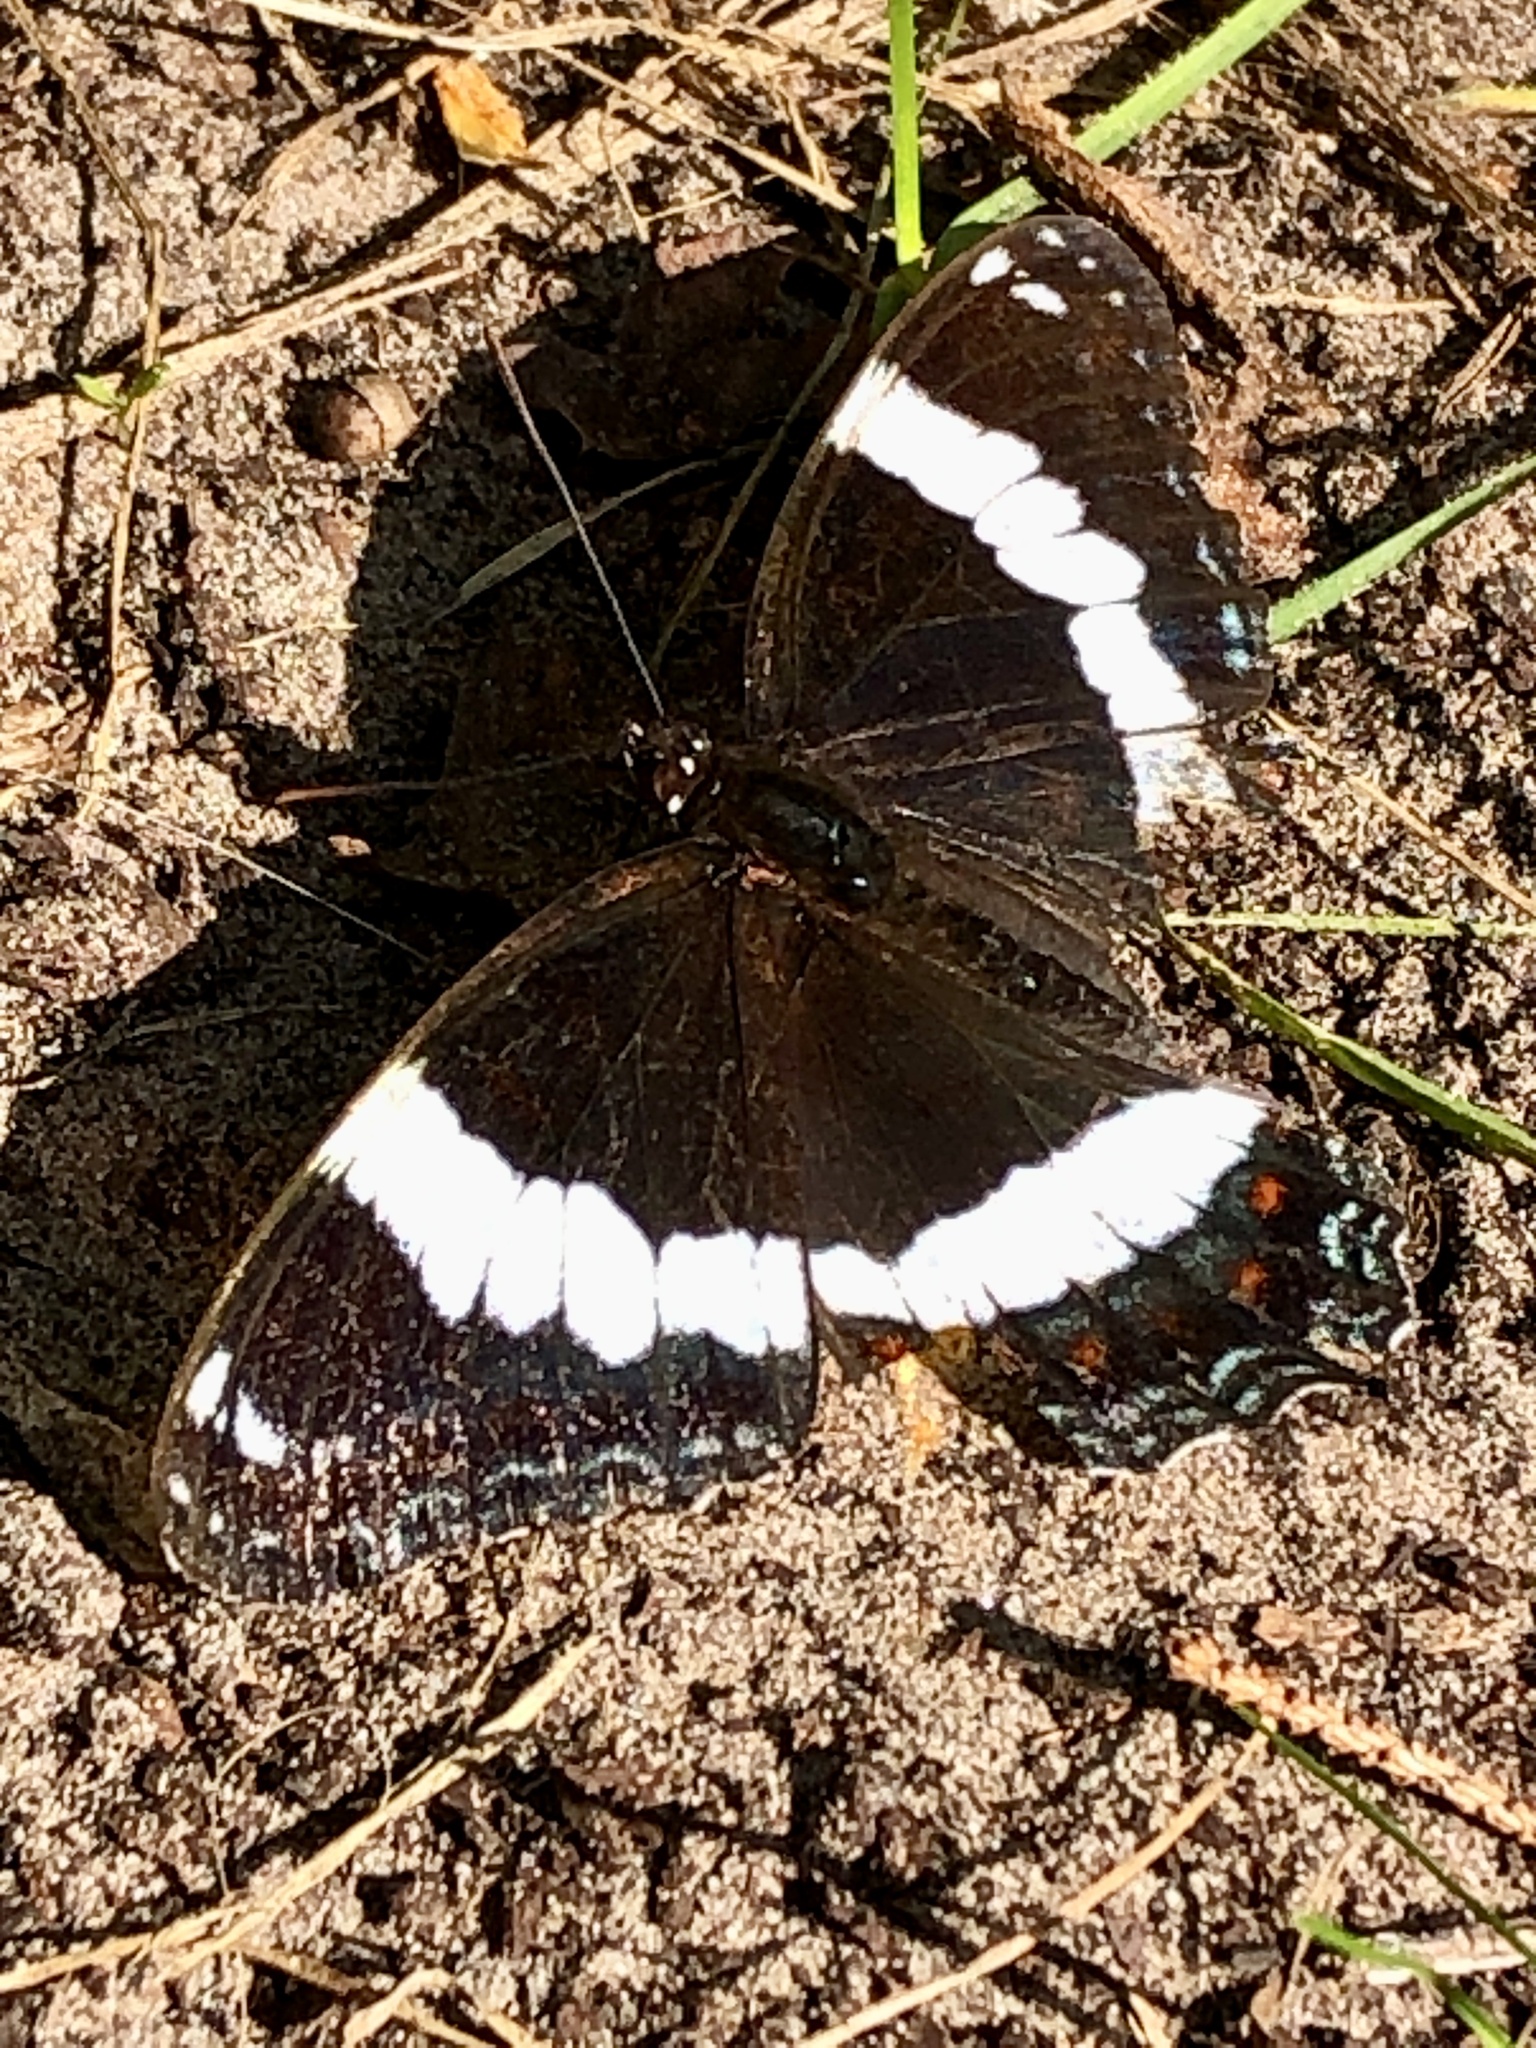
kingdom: Animalia
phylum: Arthropoda
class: Insecta
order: Lepidoptera
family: Nymphalidae
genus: Limenitis
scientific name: Limenitis arthemis
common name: Red-spotted admiral
